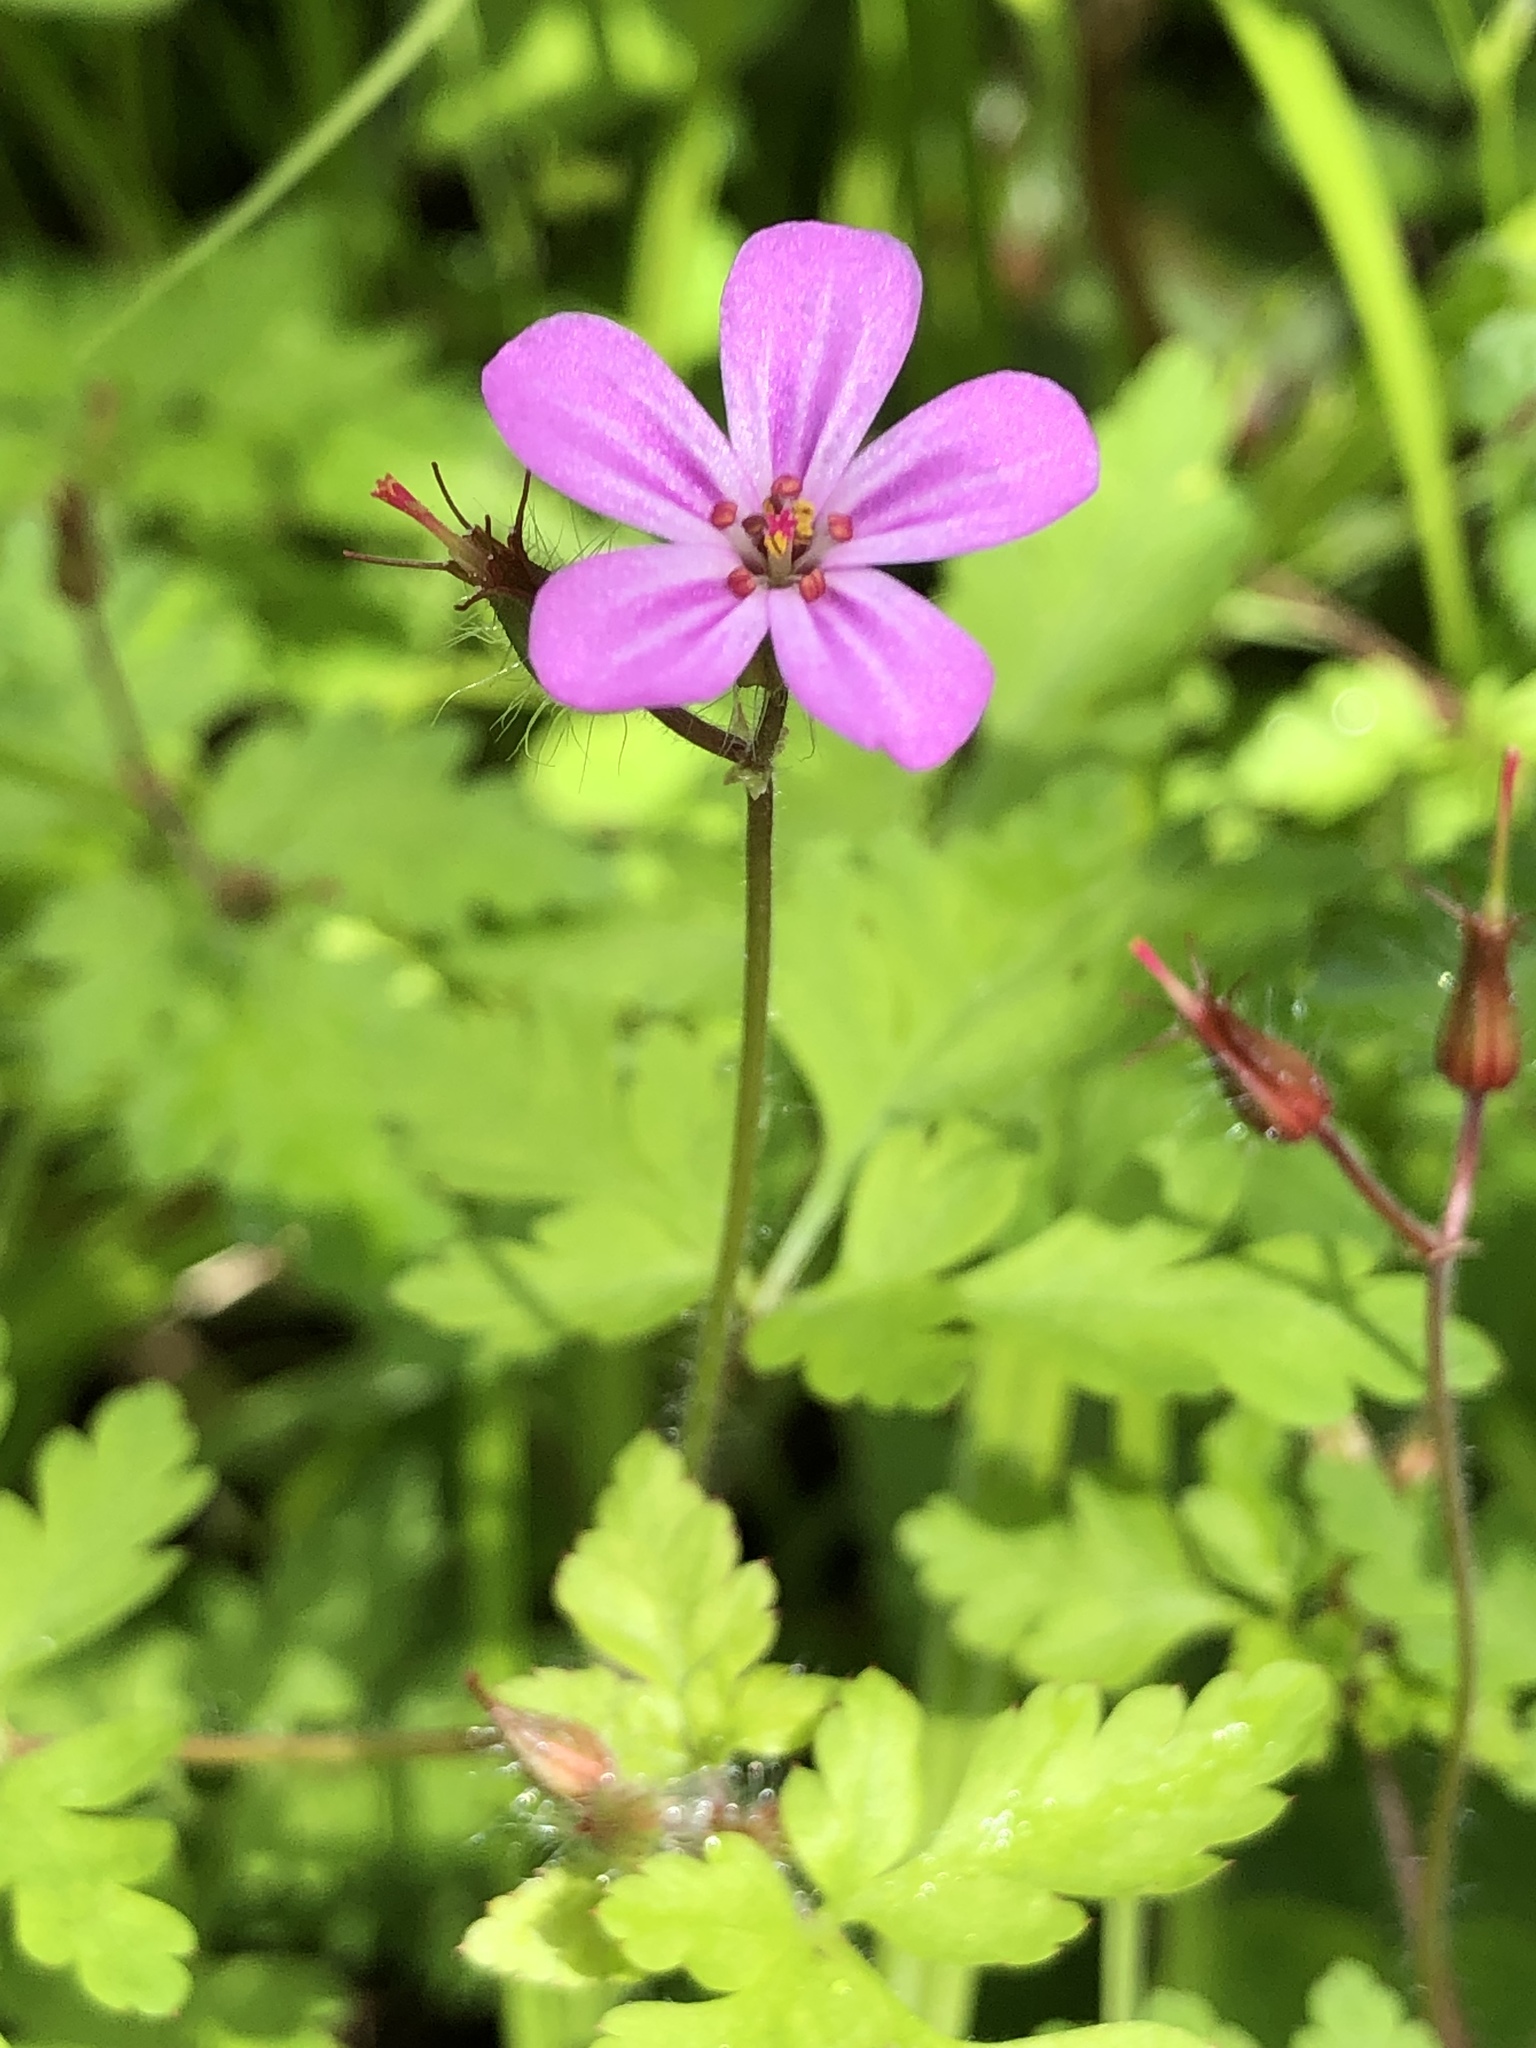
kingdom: Plantae
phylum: Tracheophyta
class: Magnoliopsida
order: Geraniales
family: Geraniaceae
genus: Geranium
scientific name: Geranium robertianum
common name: Herb-robert
